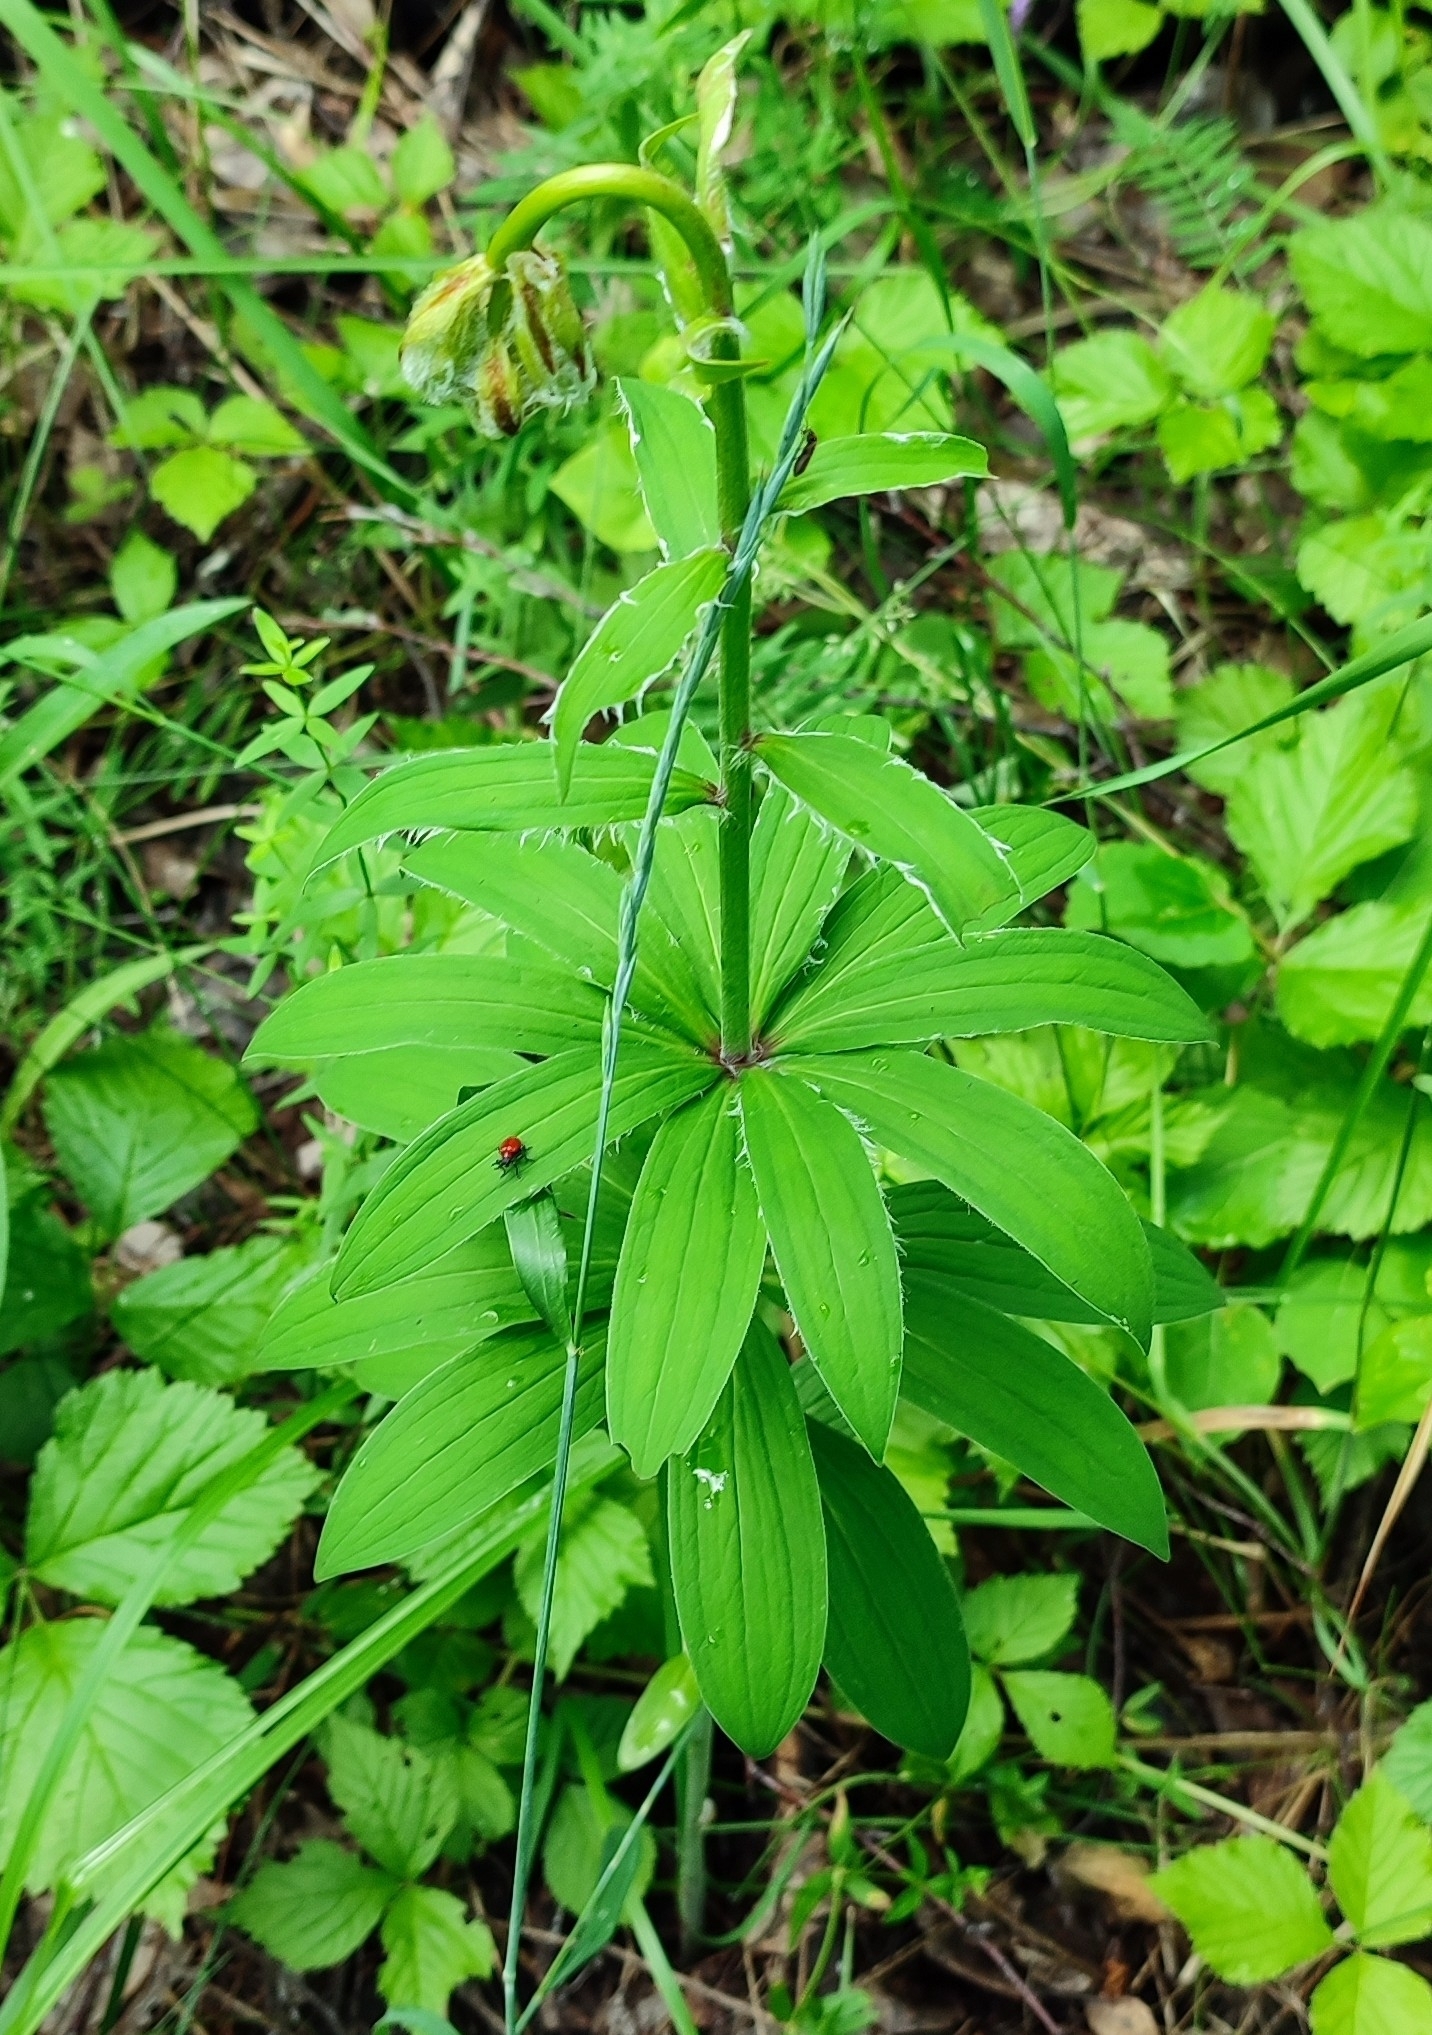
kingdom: Plantae
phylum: Tracheophyta
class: Liliopsida
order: Liliales
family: Liliaceae
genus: Lilium
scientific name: Lilium martagon
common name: Martagon lily
